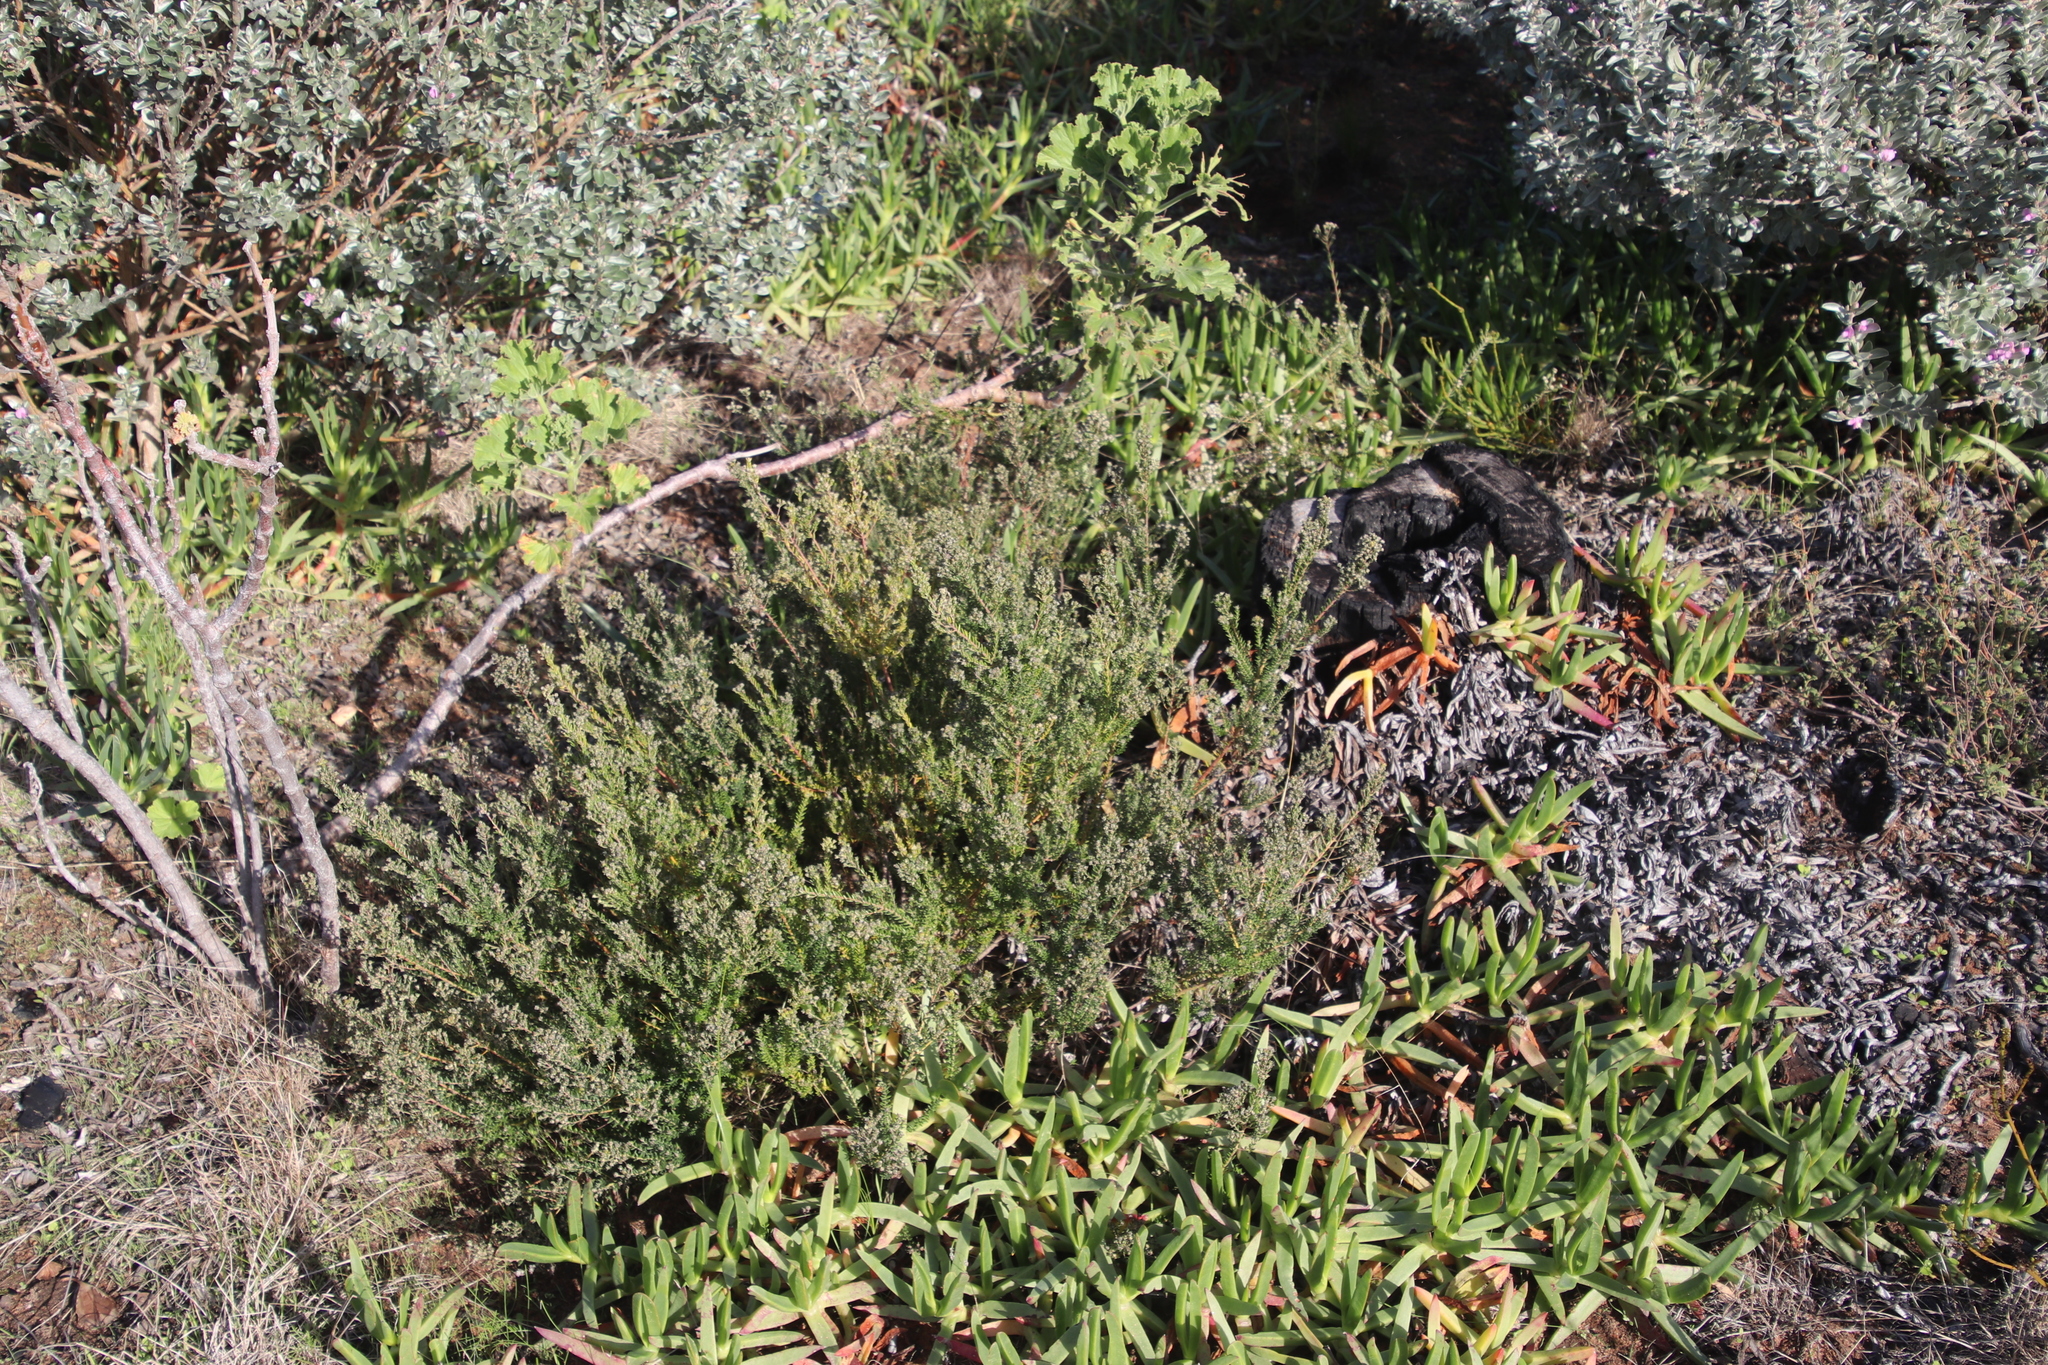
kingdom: Plantae
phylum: Tracheophyta
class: Magnoliopsida
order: Rosales
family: Rhamnaceae
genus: Phylica
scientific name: Phylica parviflora
